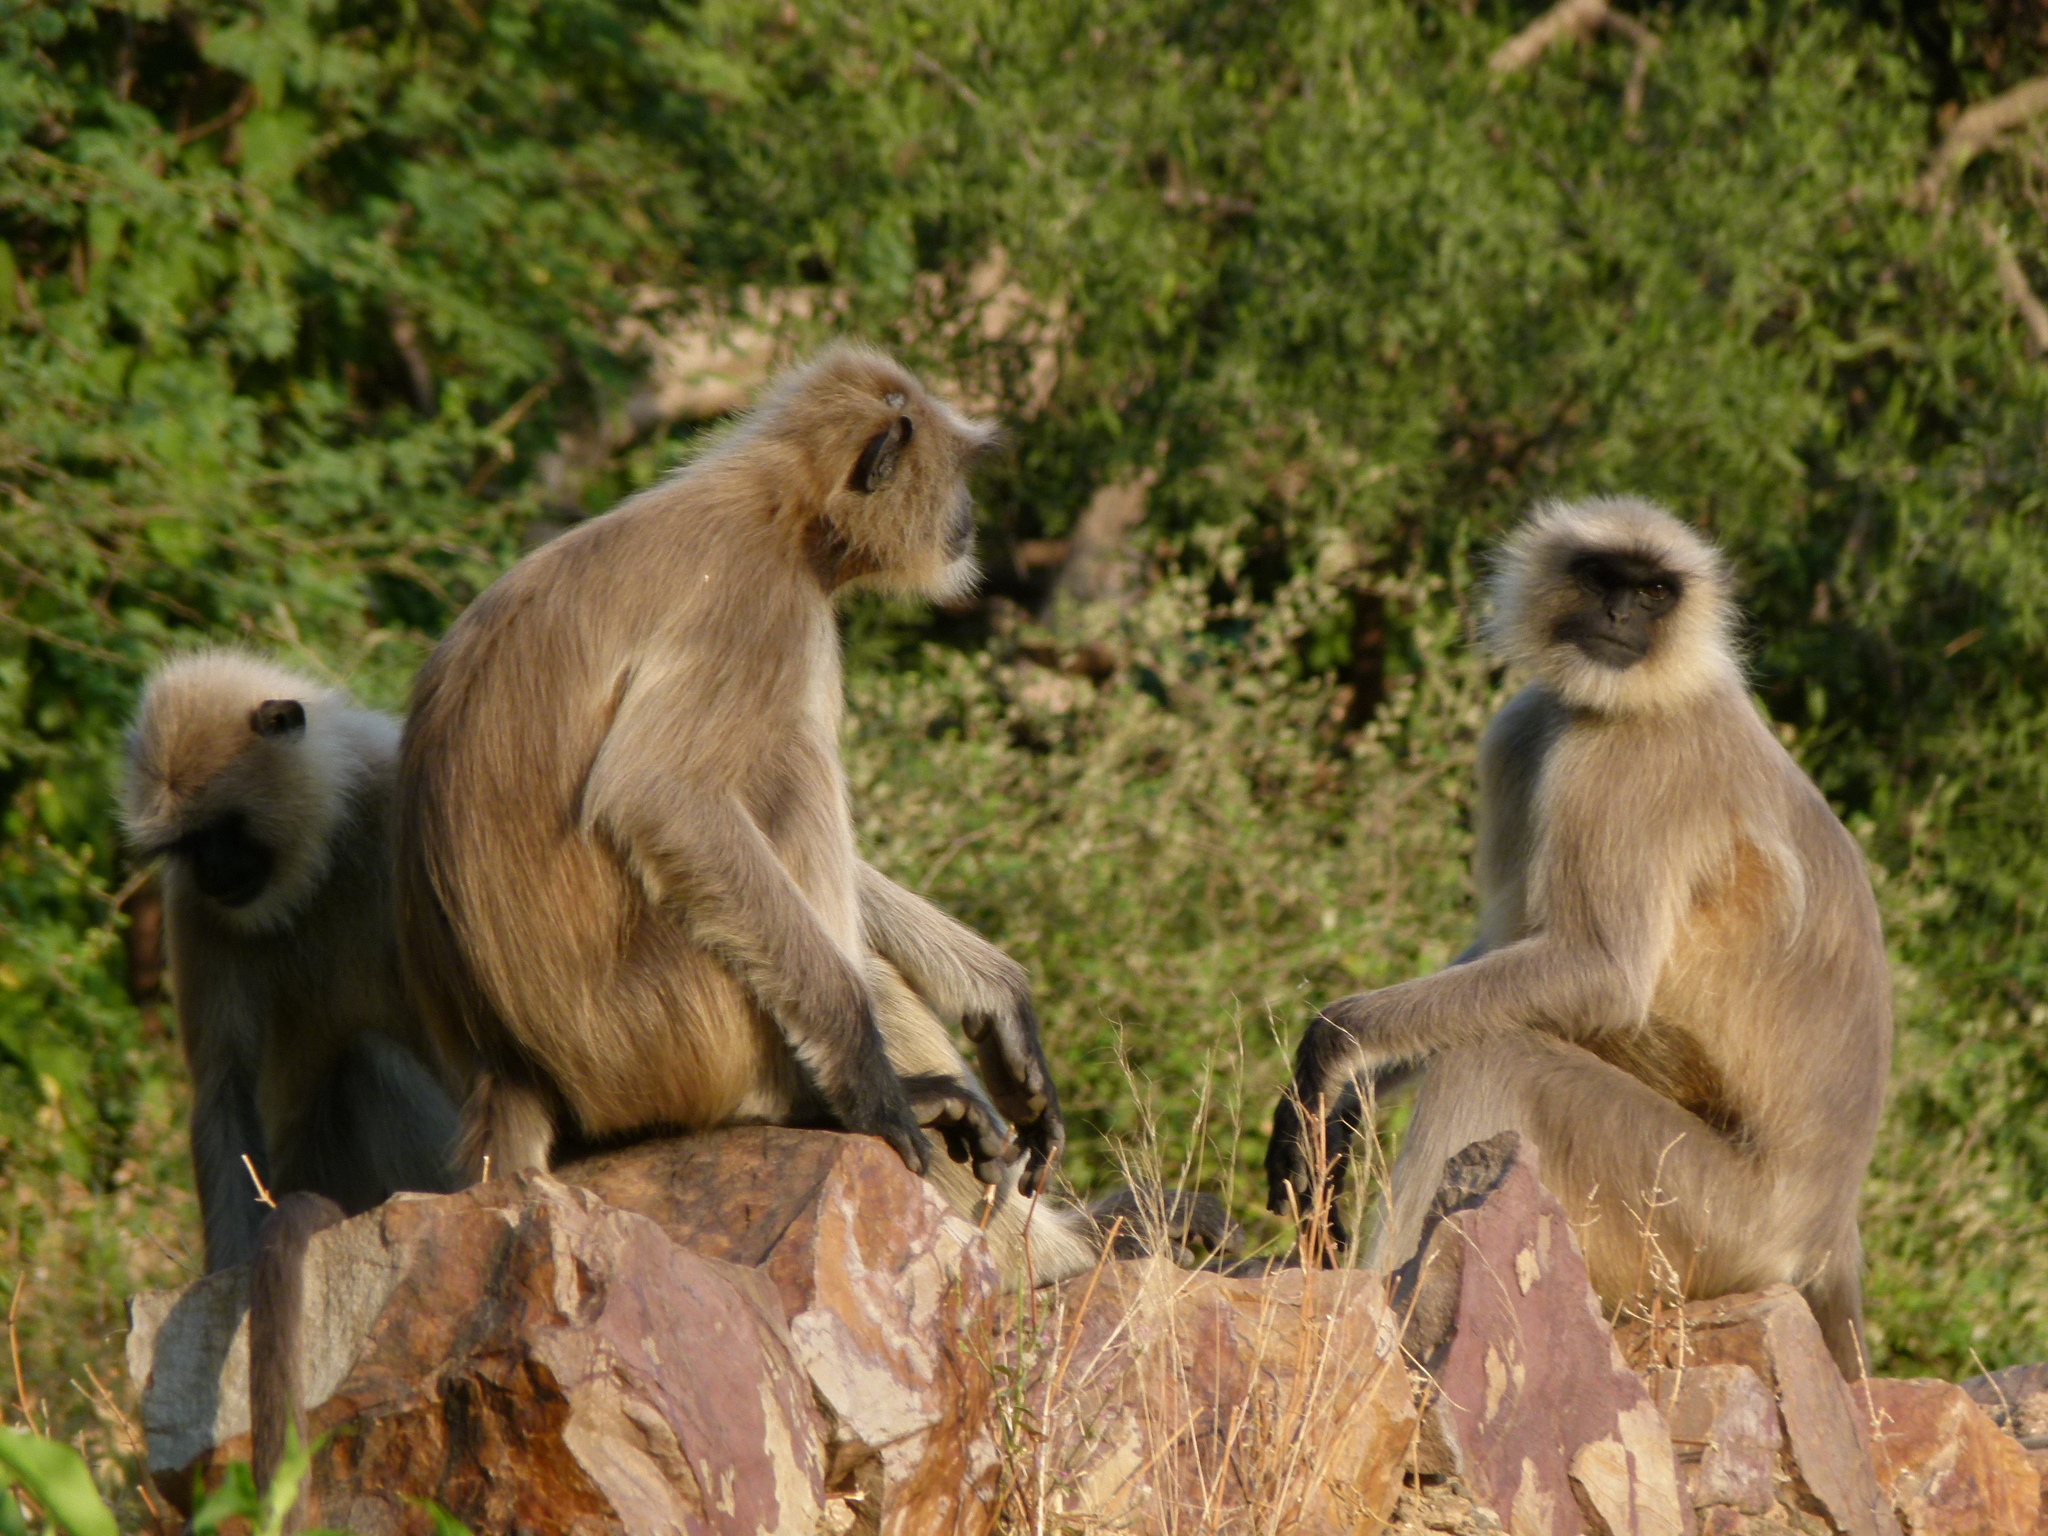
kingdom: Animalia
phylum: Chordata
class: Mammalia
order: Primates
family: Cercopithecidae
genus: Semnopithecus
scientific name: Semnopithecus entellus
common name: Northern plains gray langur
